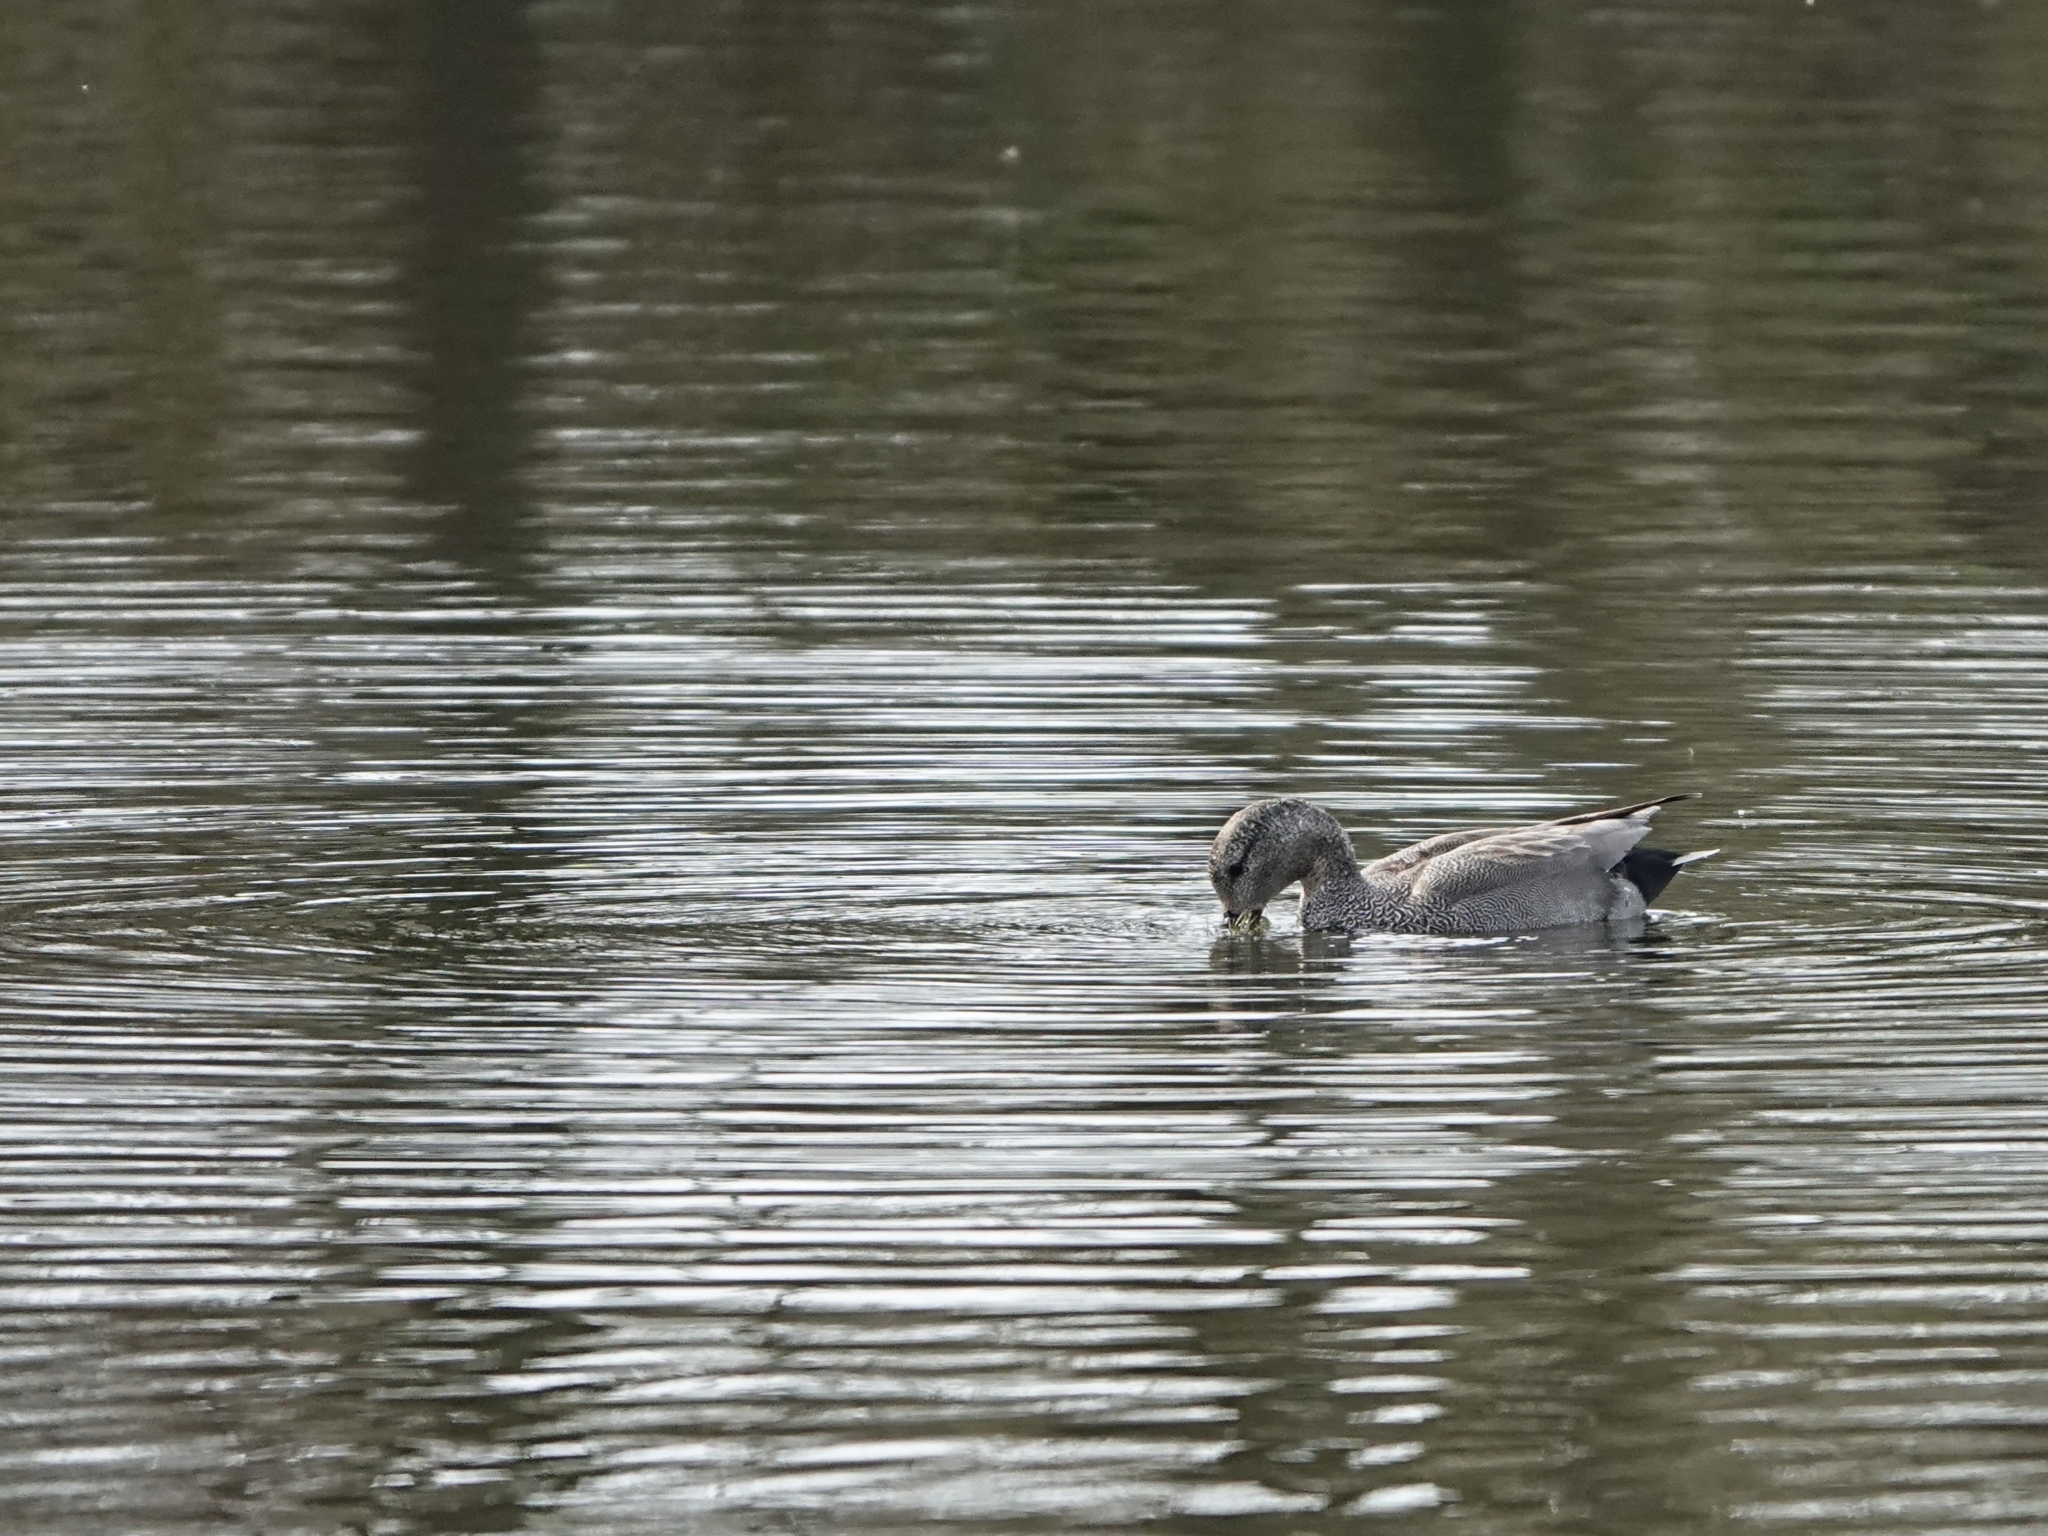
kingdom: Animalia
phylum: Chordata
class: Aves
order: Anseriformes
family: Anatidae
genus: Mareca
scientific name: Mareca strepera
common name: Gadwall
